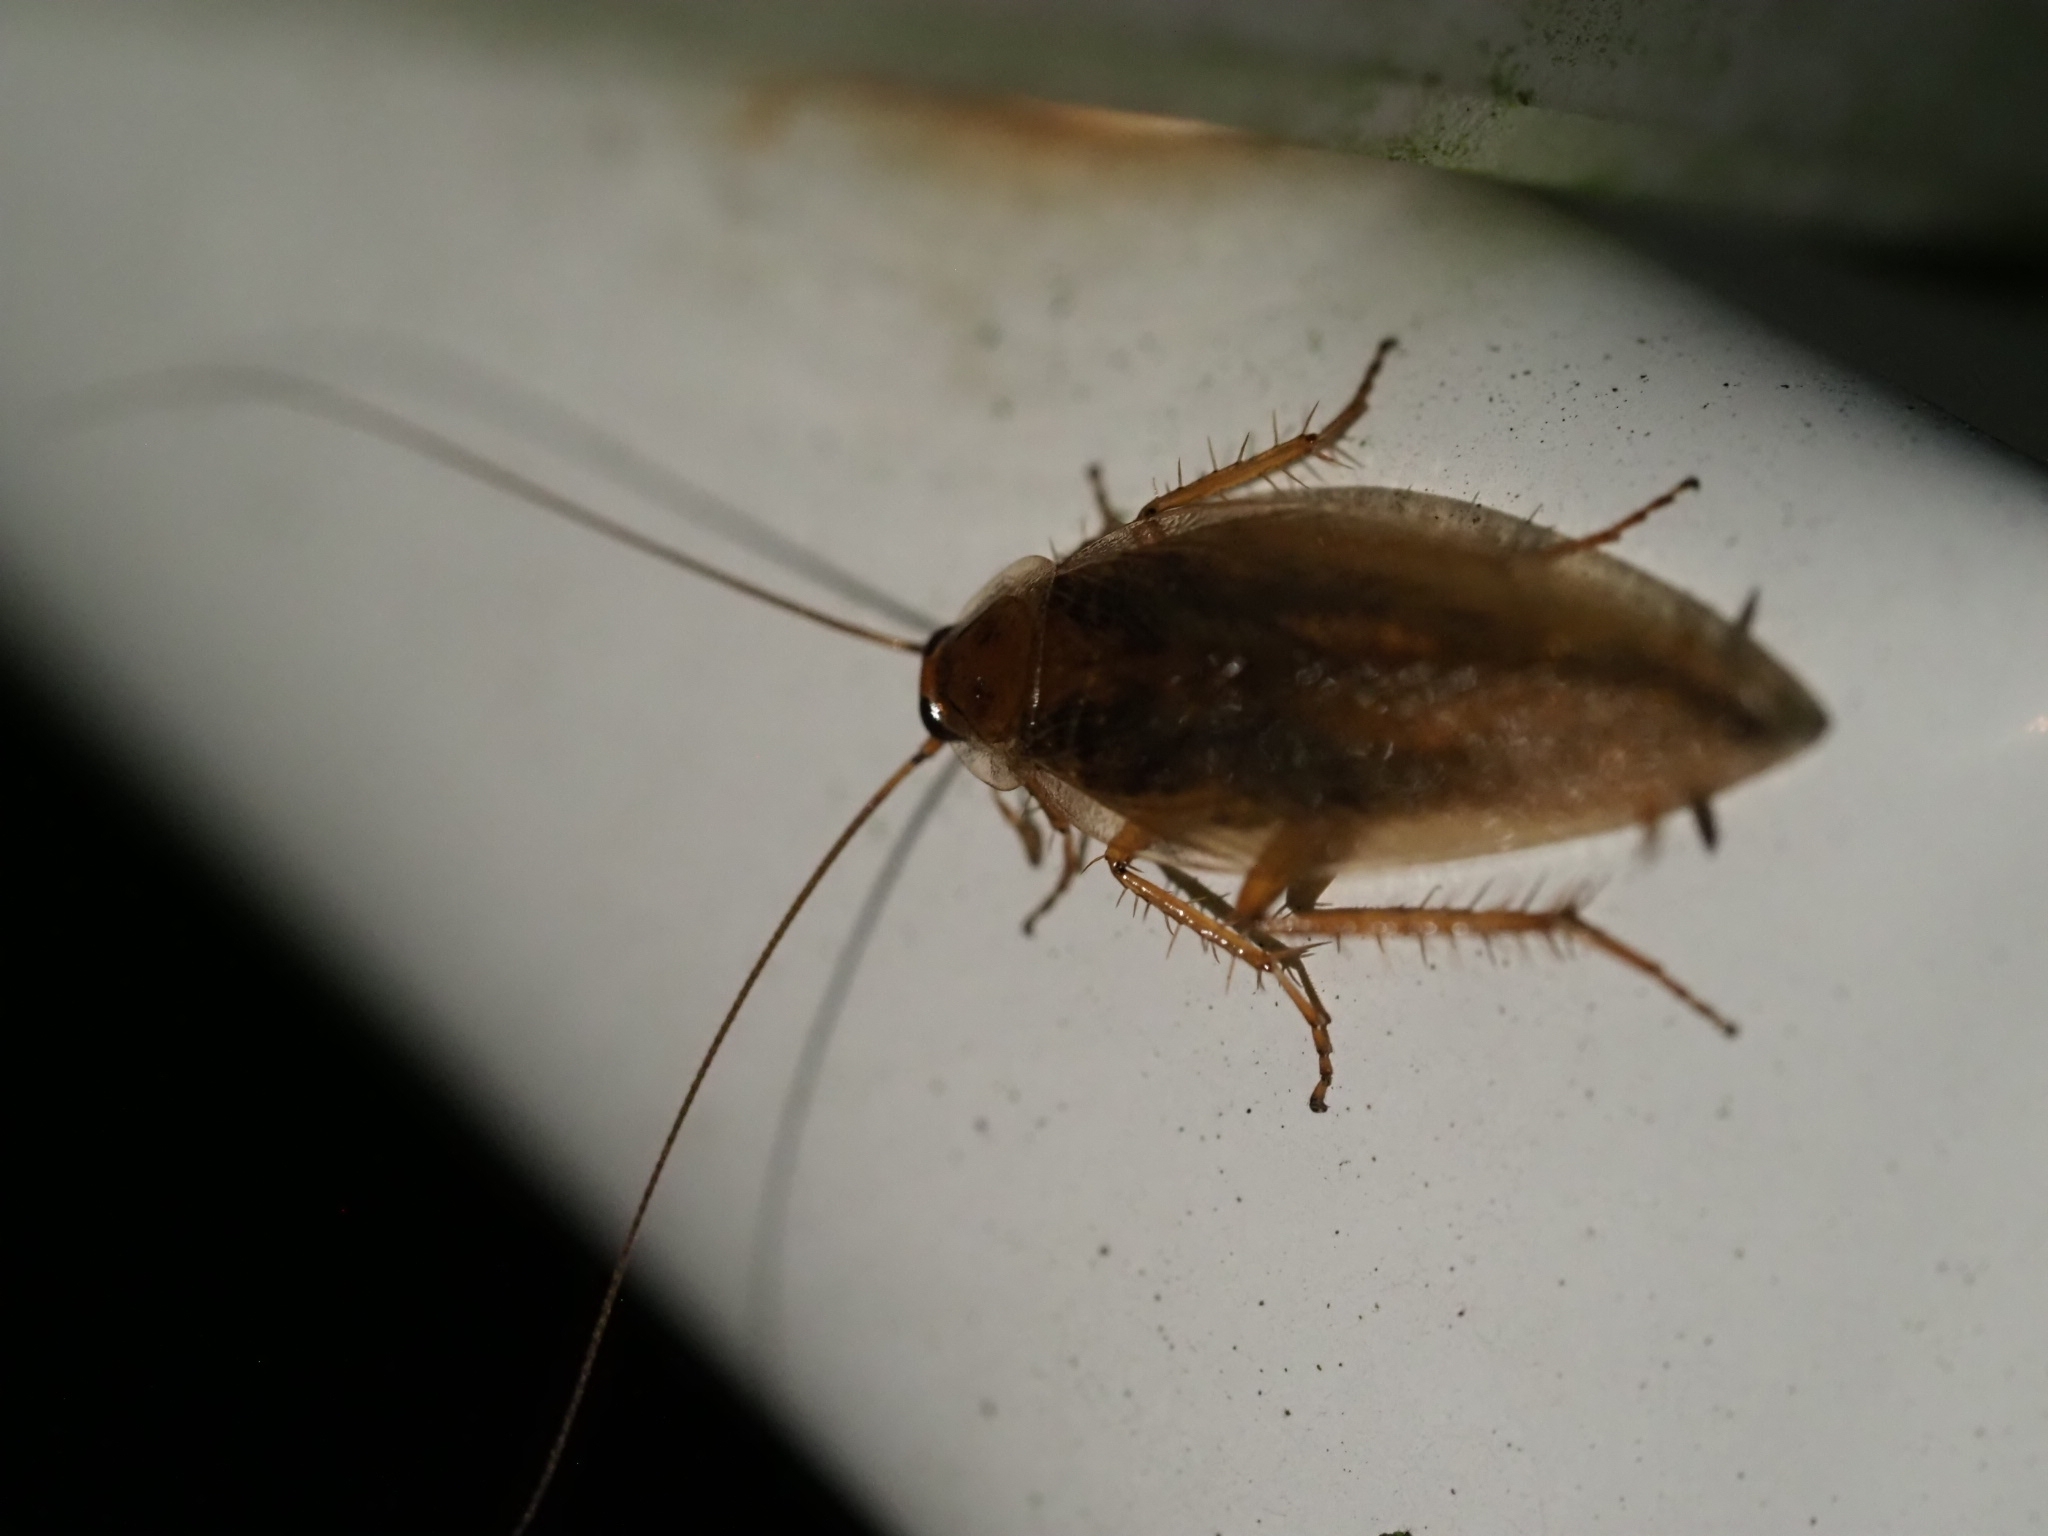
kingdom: Animalia
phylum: Arthropoda
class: Insecta
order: Blattodea
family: Ectobiidae
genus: Ectobius
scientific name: Ectobius vittiventris
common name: Garden cockroach
